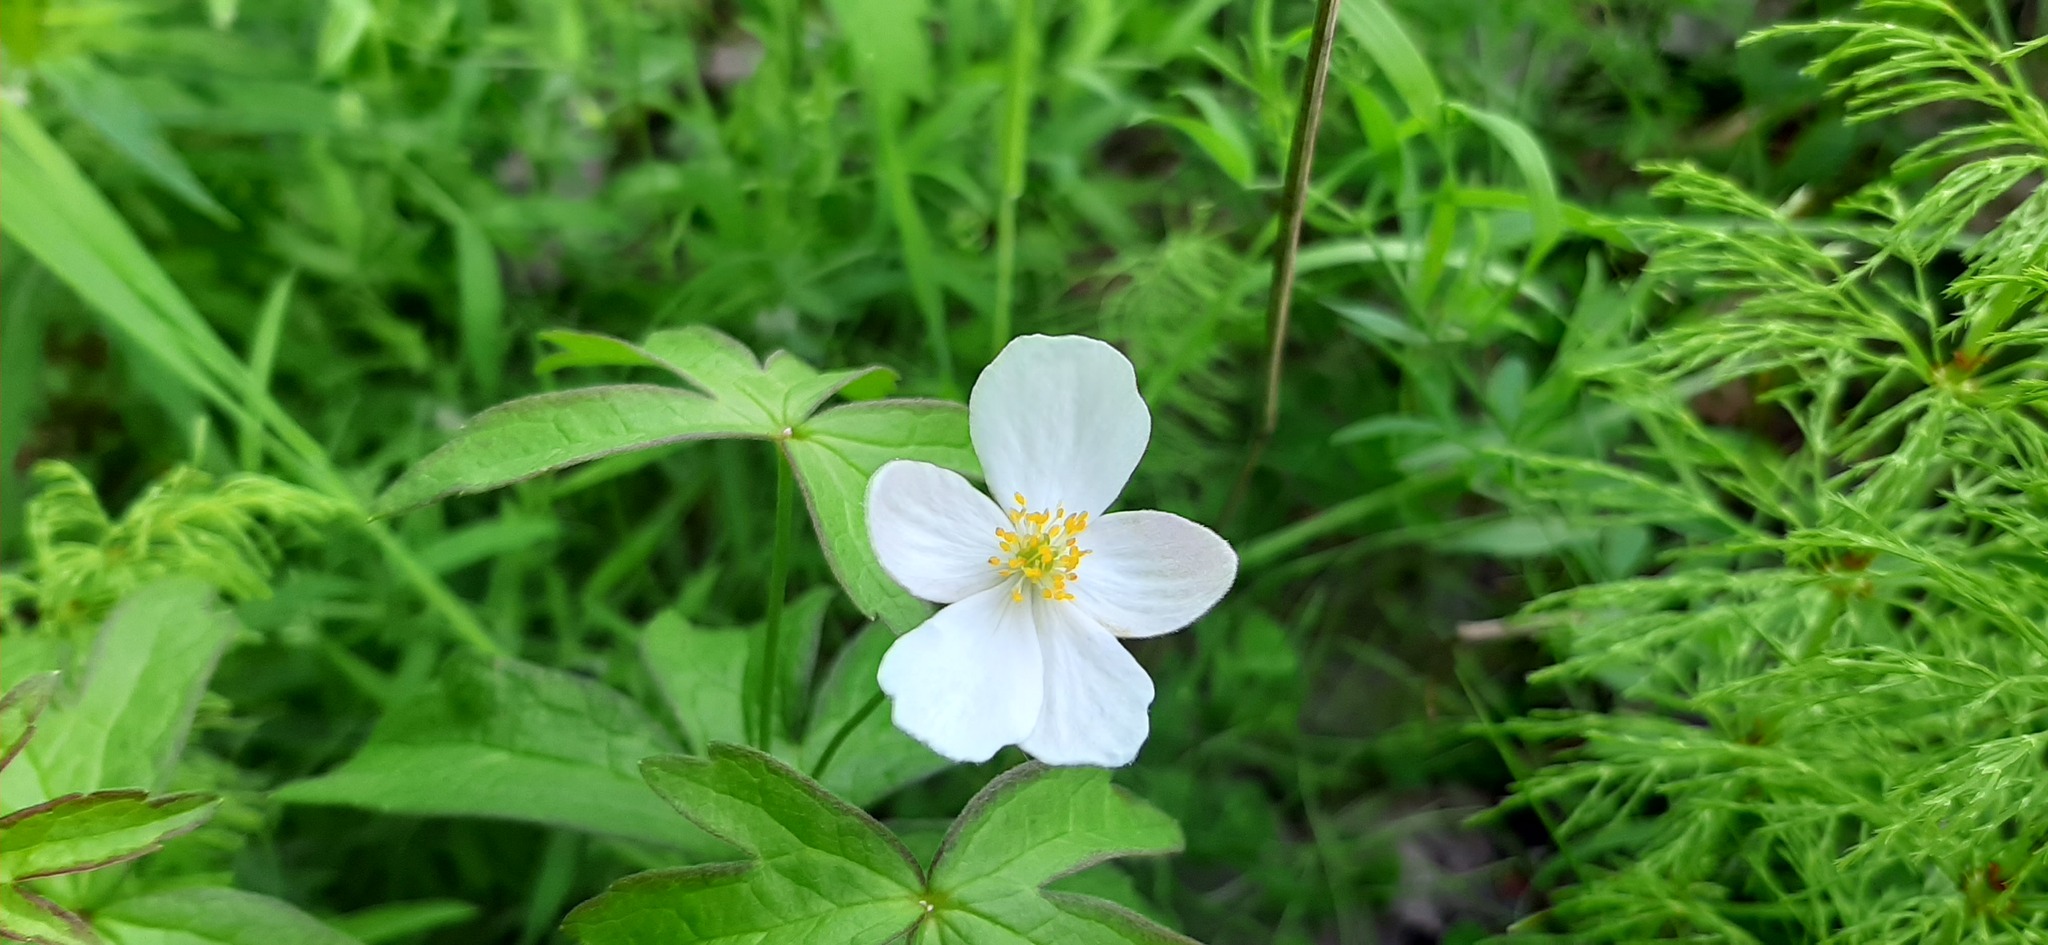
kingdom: Plantae
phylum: Tracheophyta
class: Magnoliopsida
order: Ranunculales
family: Ranunculaceae
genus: Anemone
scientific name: Anemone sylvestris
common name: Snowdrop anemone
